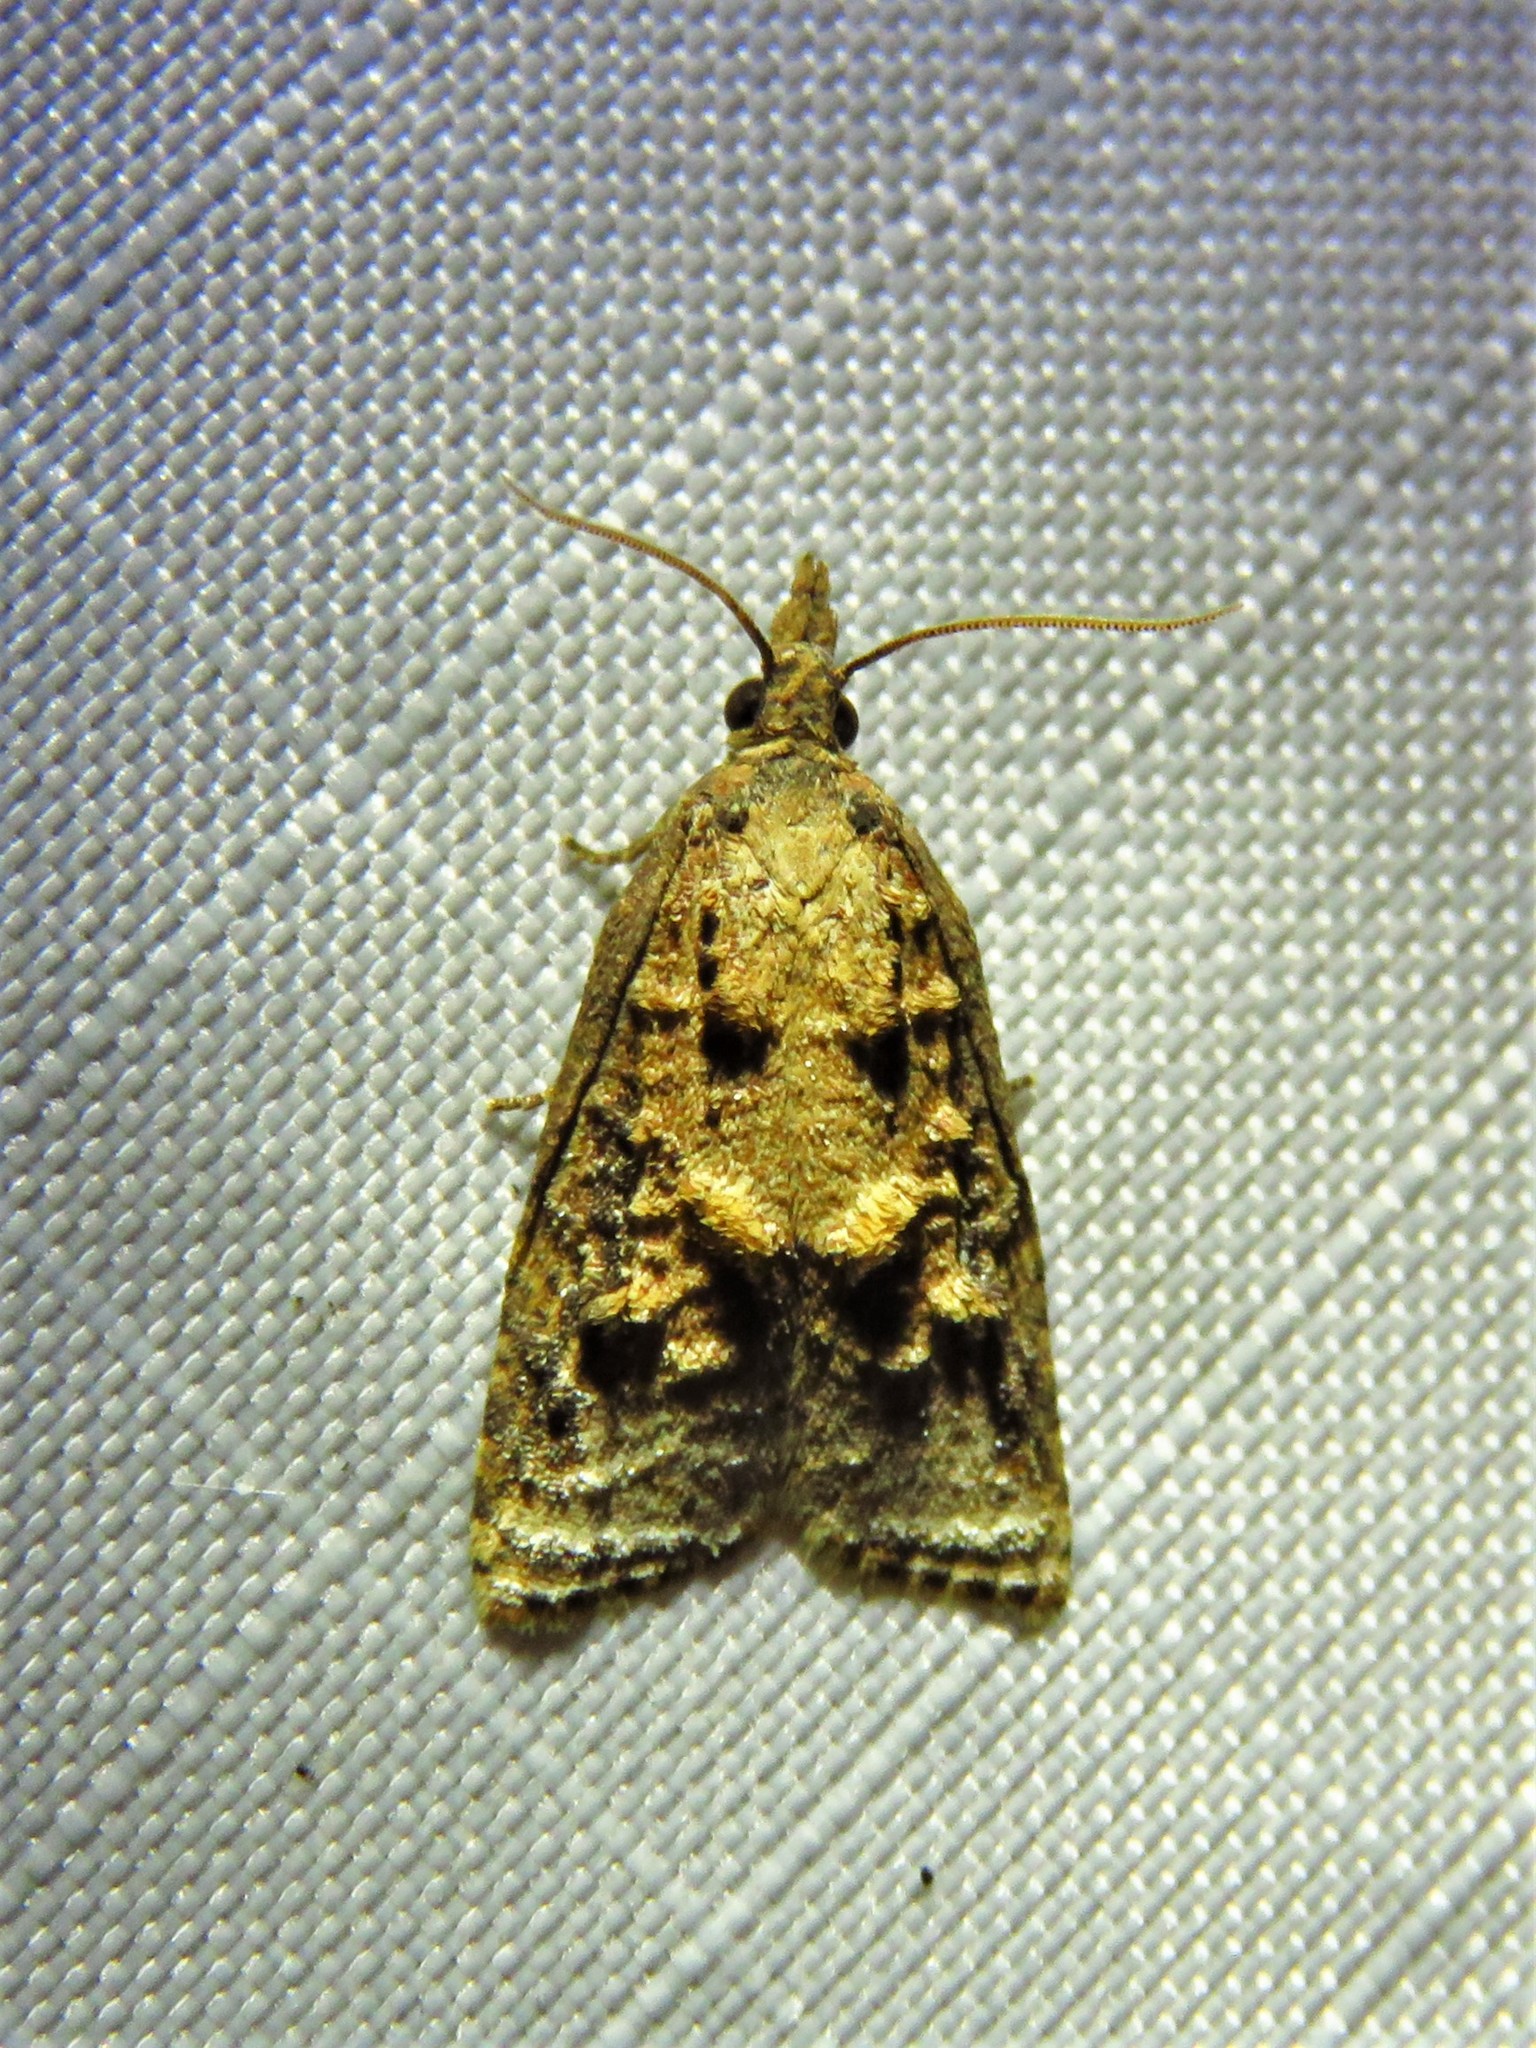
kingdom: Animalia
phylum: Arthropoda
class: Insecta
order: Lepidoptera
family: Tortricidae
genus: Platynota
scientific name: Platynota rostrana
